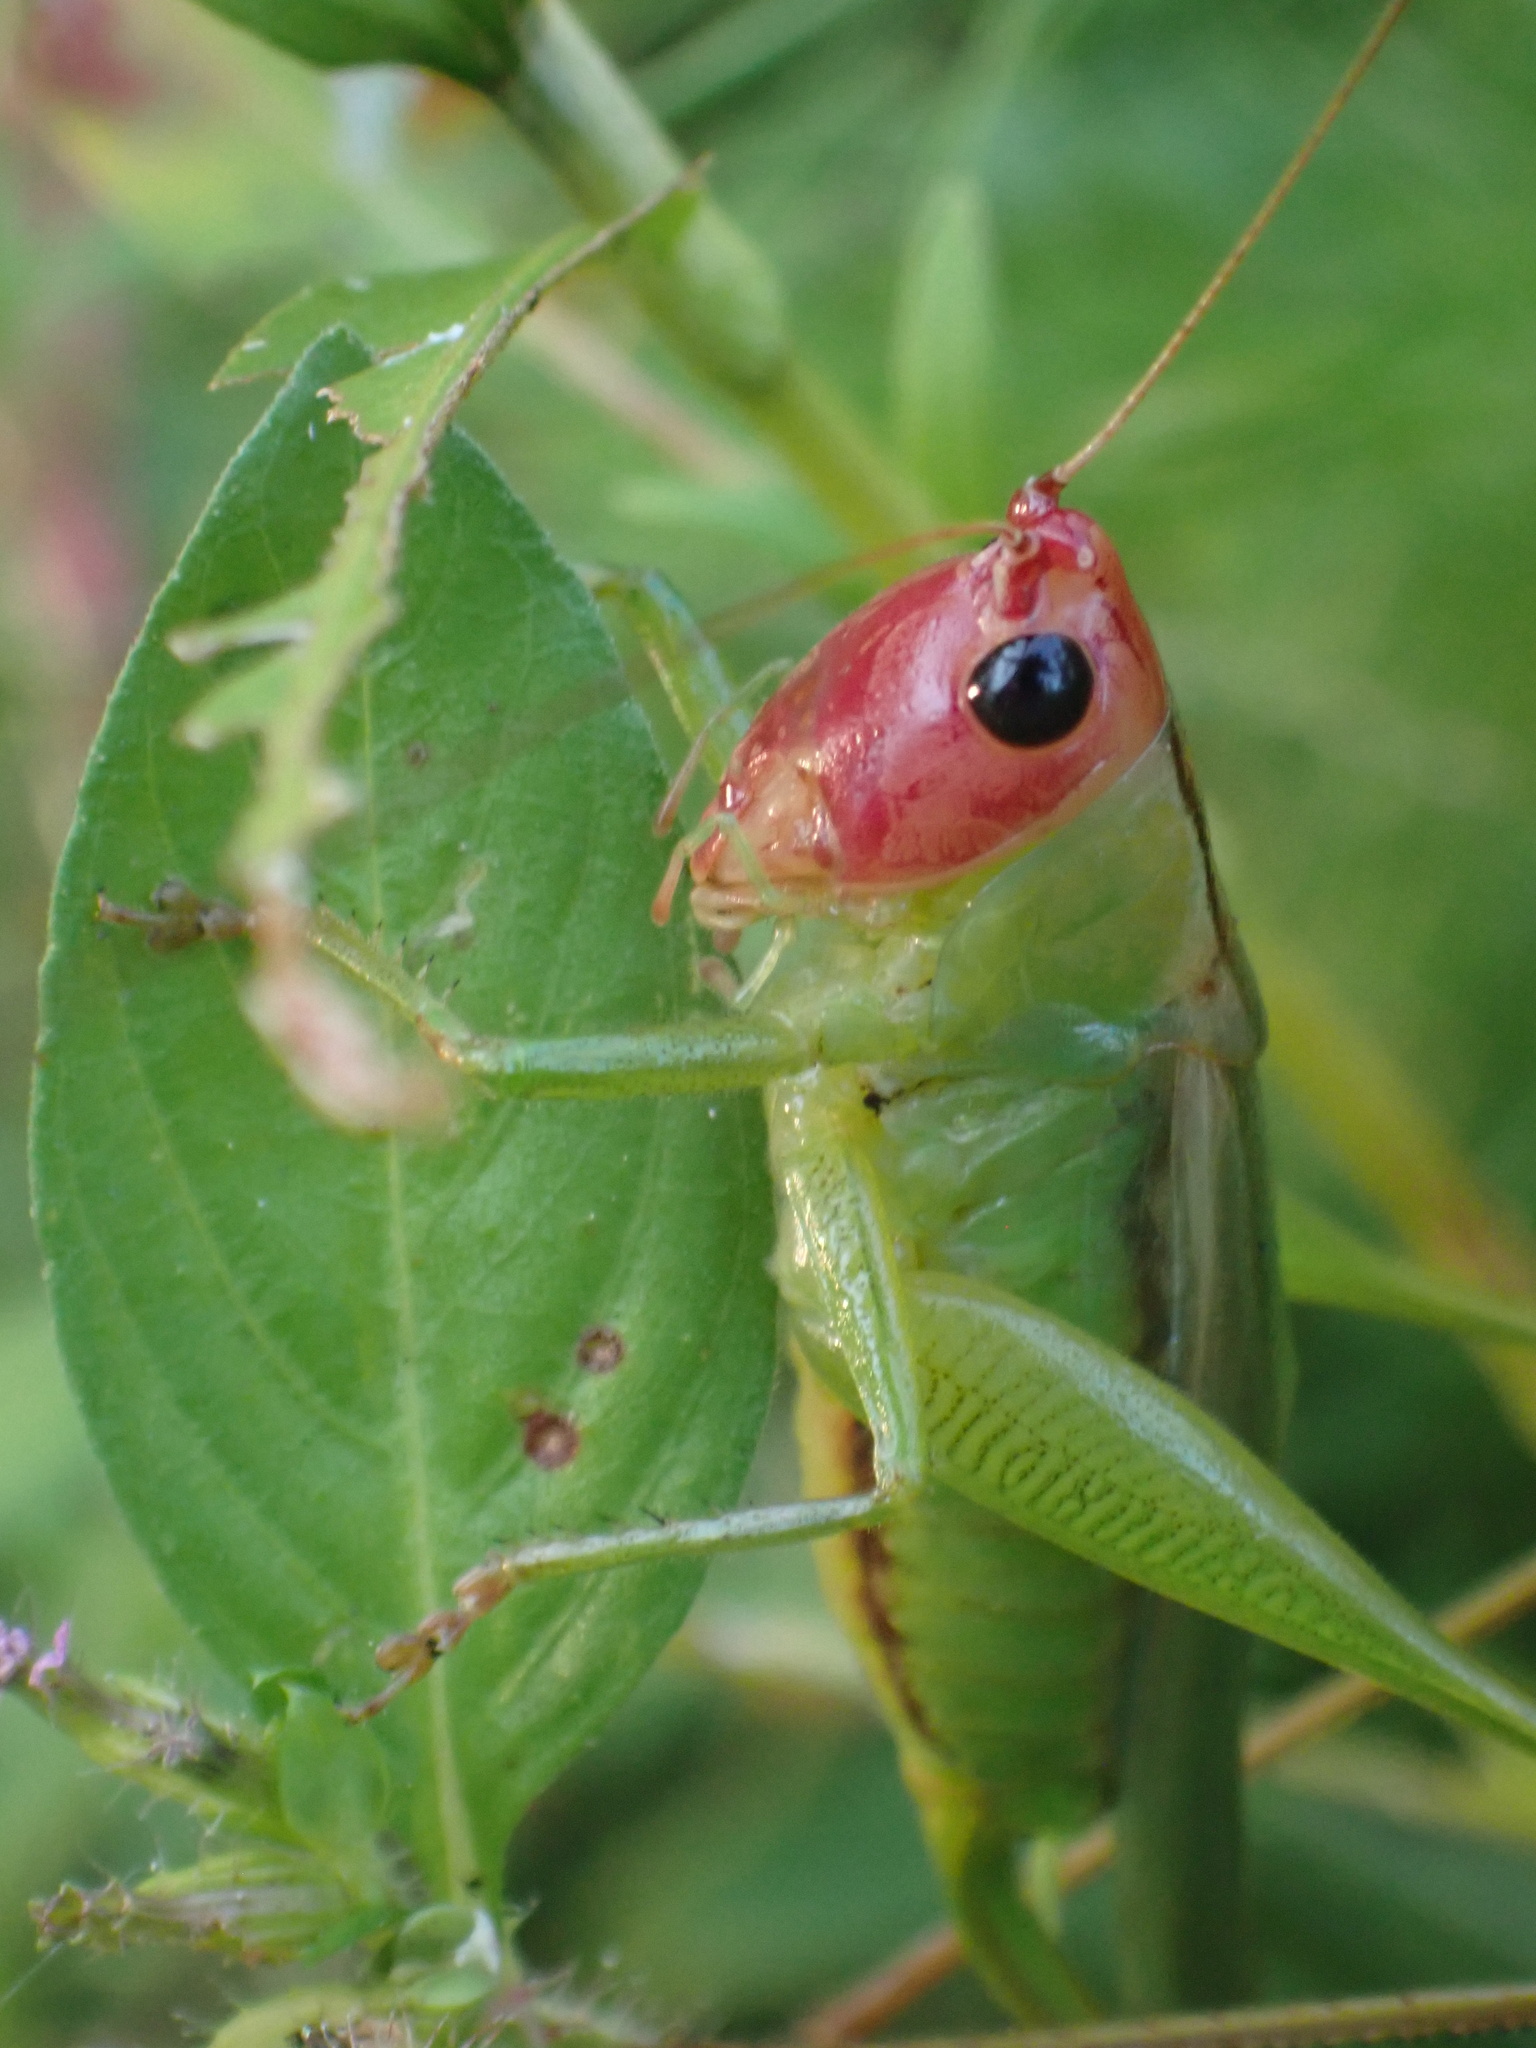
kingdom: Animalia
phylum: Arthropoda
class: Insecta
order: Orthoptera
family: Tettigoniidae
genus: Orchelimum
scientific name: Orchelimum erythrocephalum
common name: Red-headed meadow katydid
